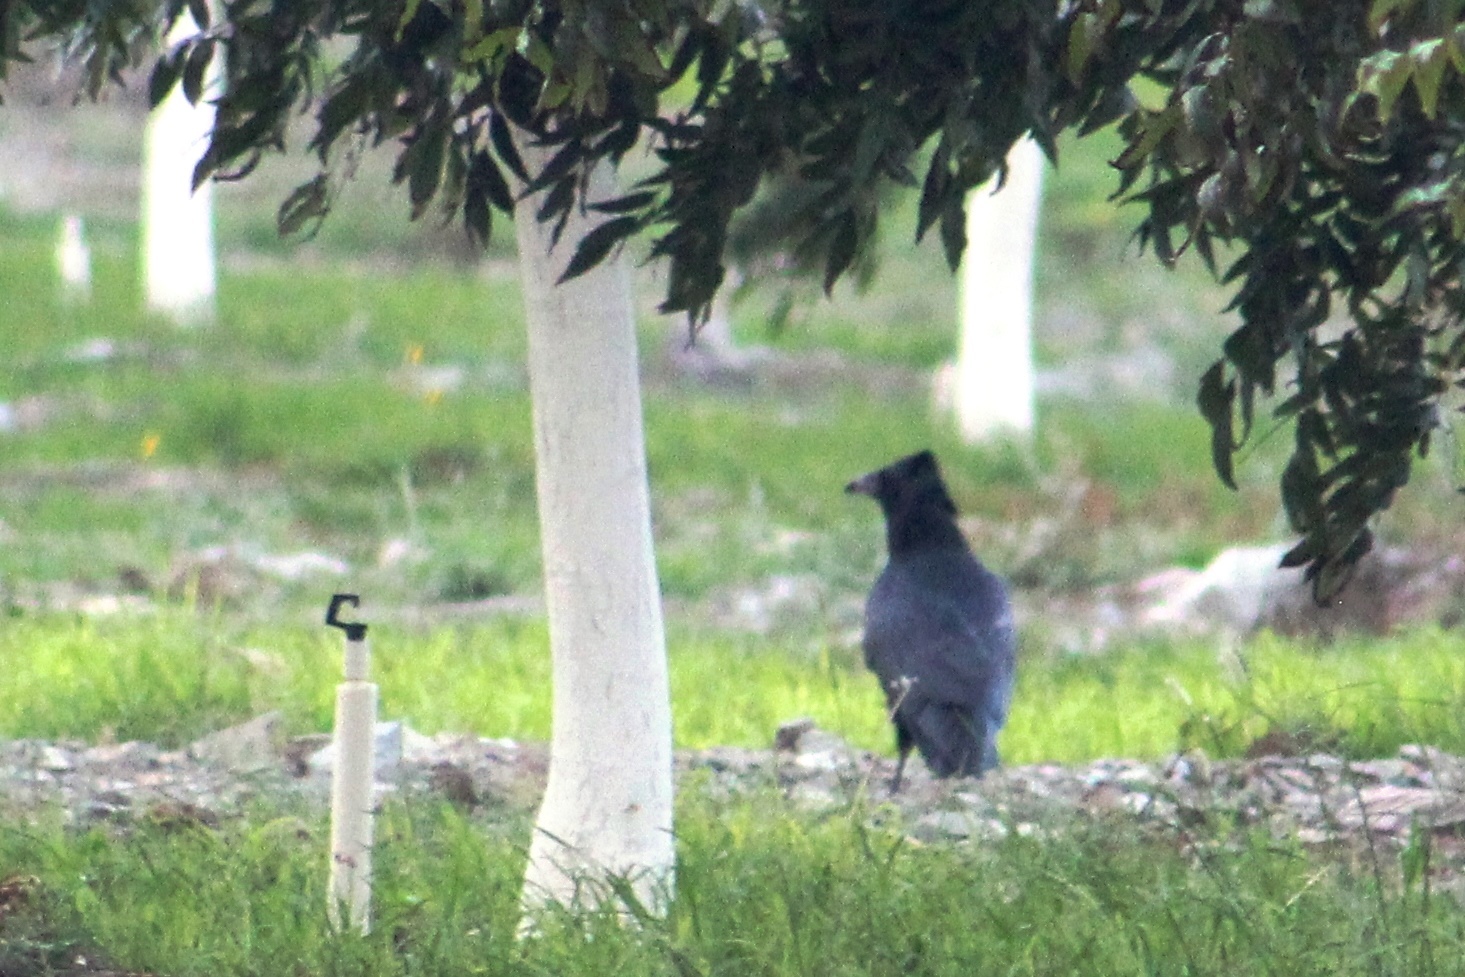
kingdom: Animalia
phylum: Chordata
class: Aves
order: Passeriformes
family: Corvidae
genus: Corvus
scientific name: Corvus corax
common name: Common raven
